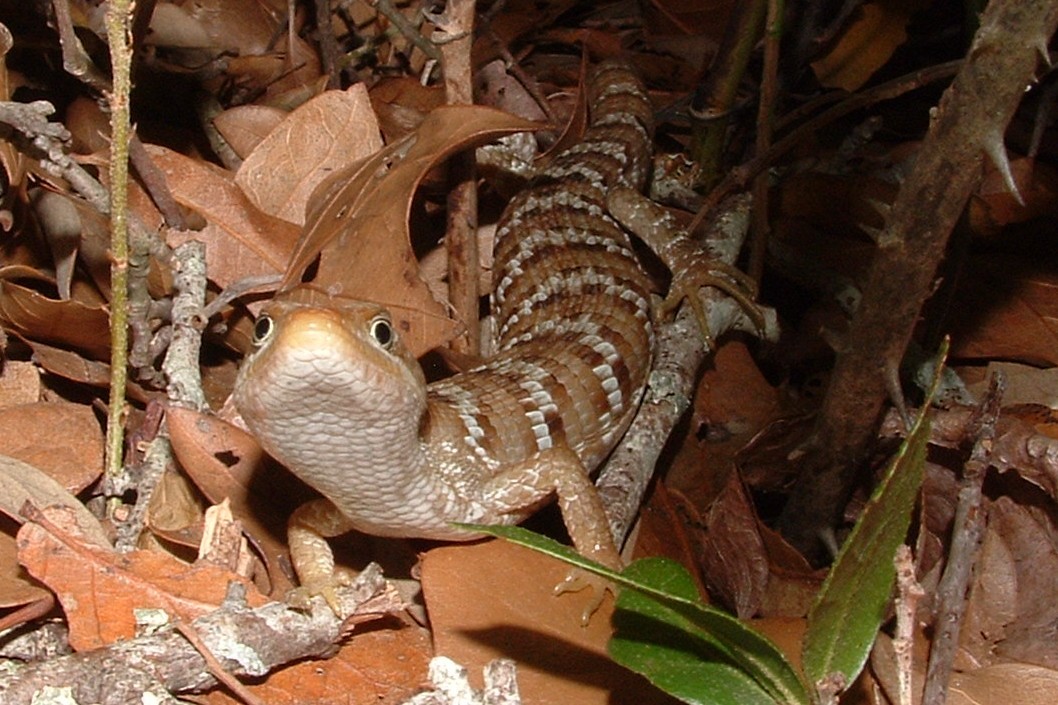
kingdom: Animalia
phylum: Chordata
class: Squamata
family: Anguidae
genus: Gerrhonotus
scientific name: Gerrhonotus infernalis
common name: Texas alligator lizard
